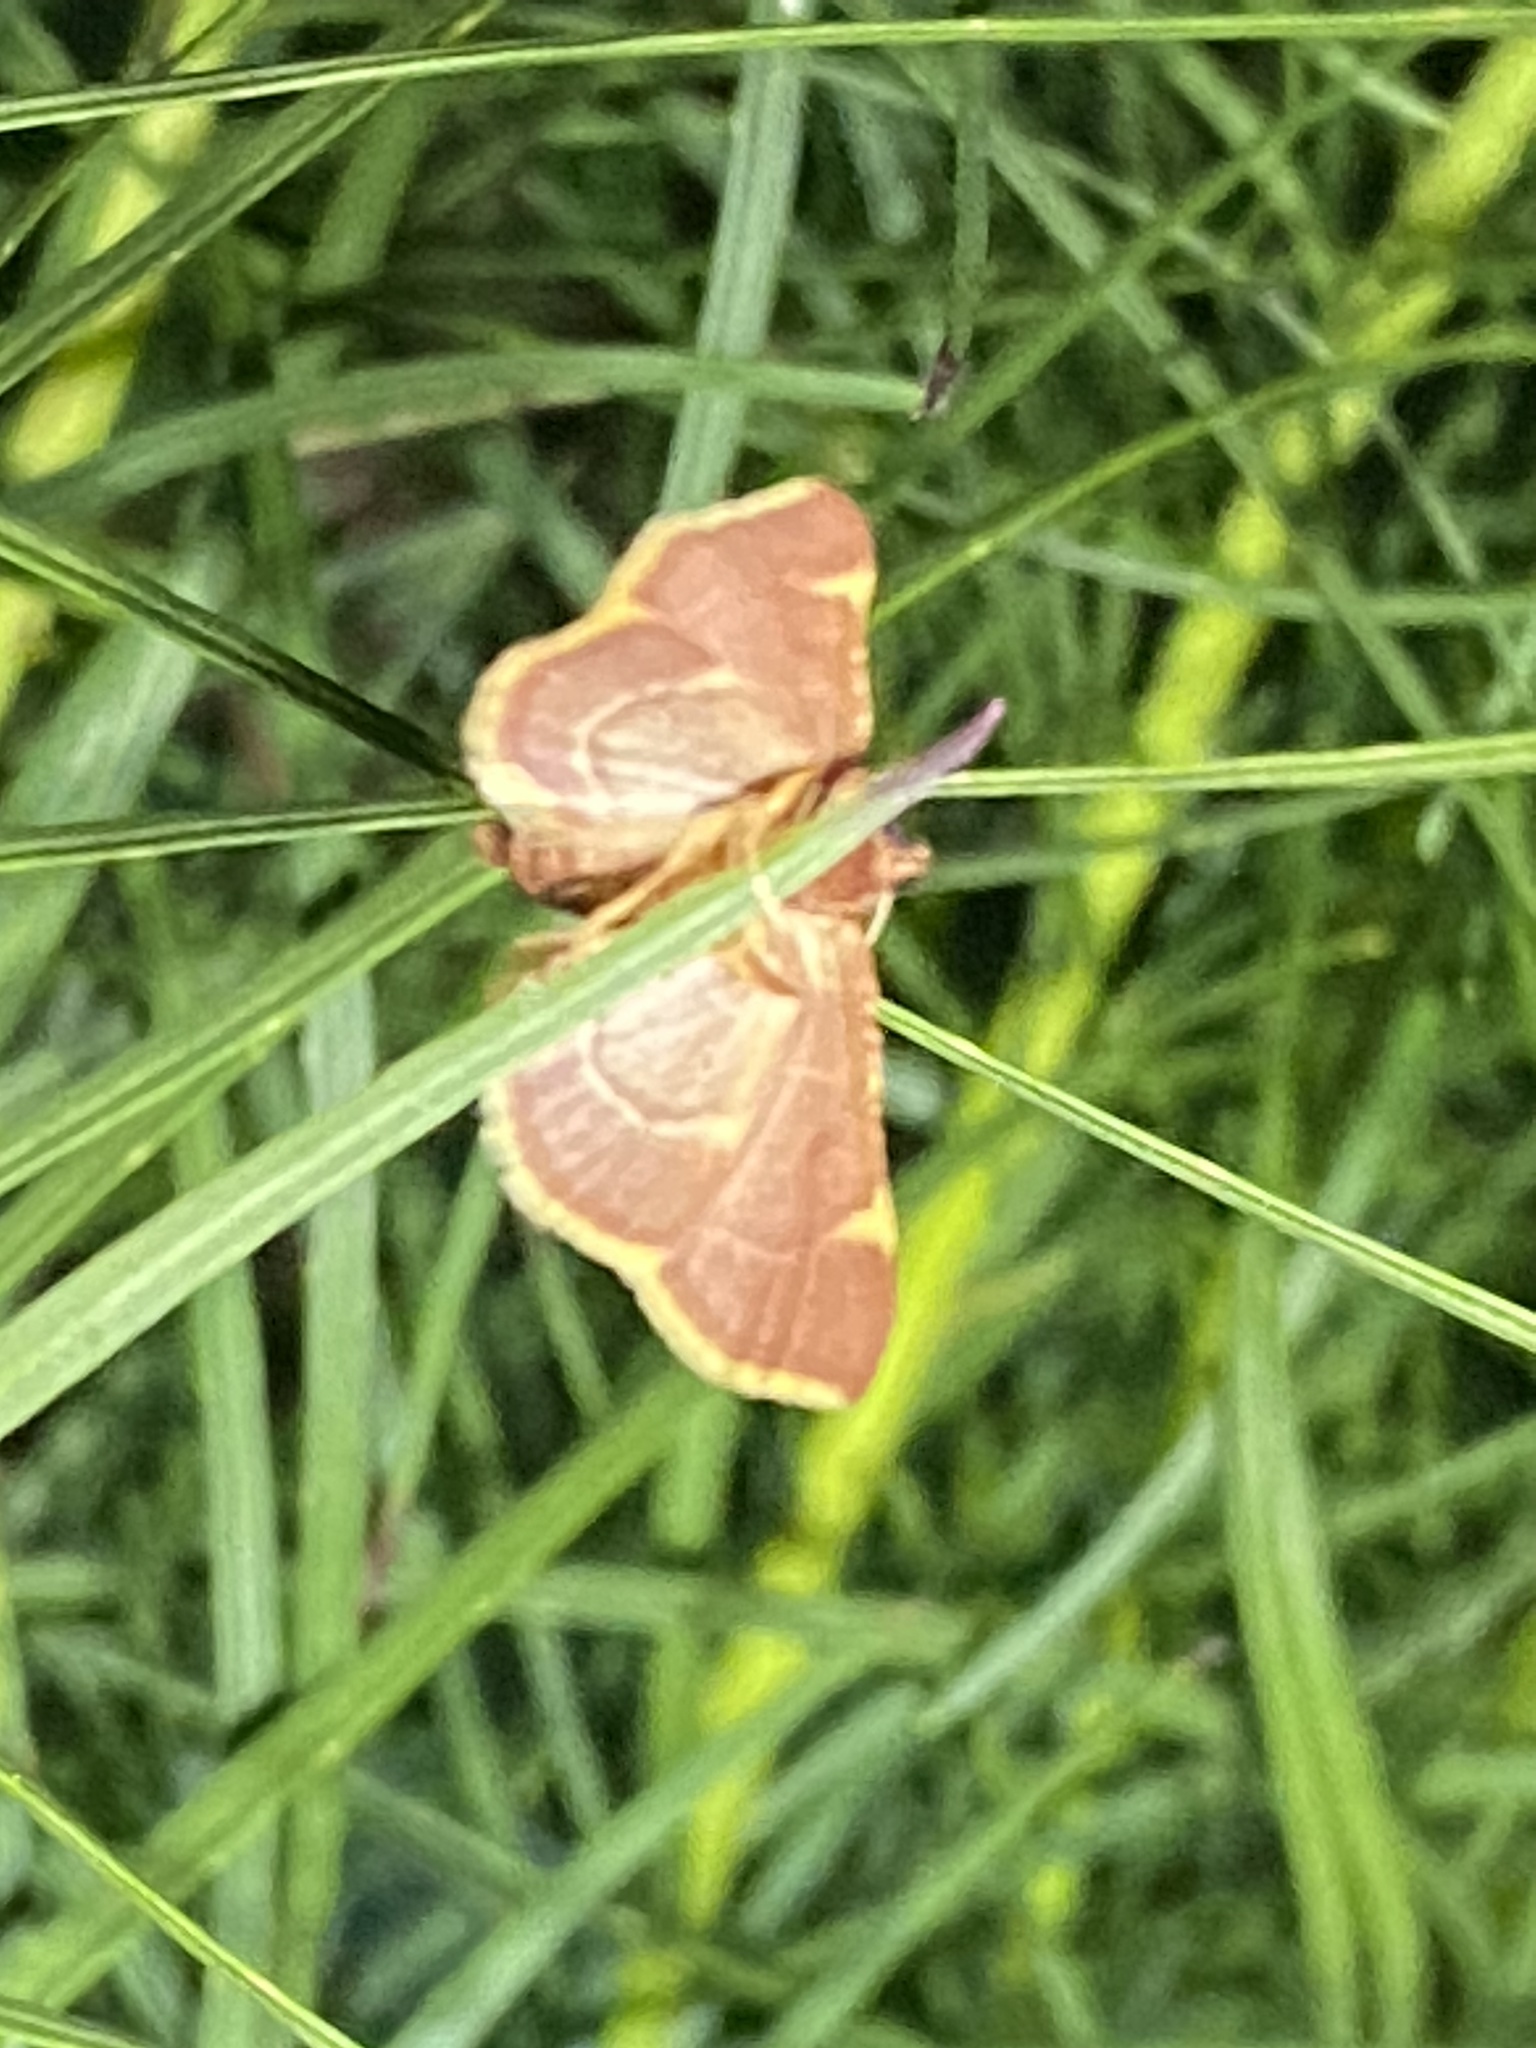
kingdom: Animalia
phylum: Arthropoda
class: Insecta
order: Lepidoptera
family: Pyralidae
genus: Hypsopygia
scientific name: Hypsopygia olinalis
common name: Yellow-fringed dolichomia moth
